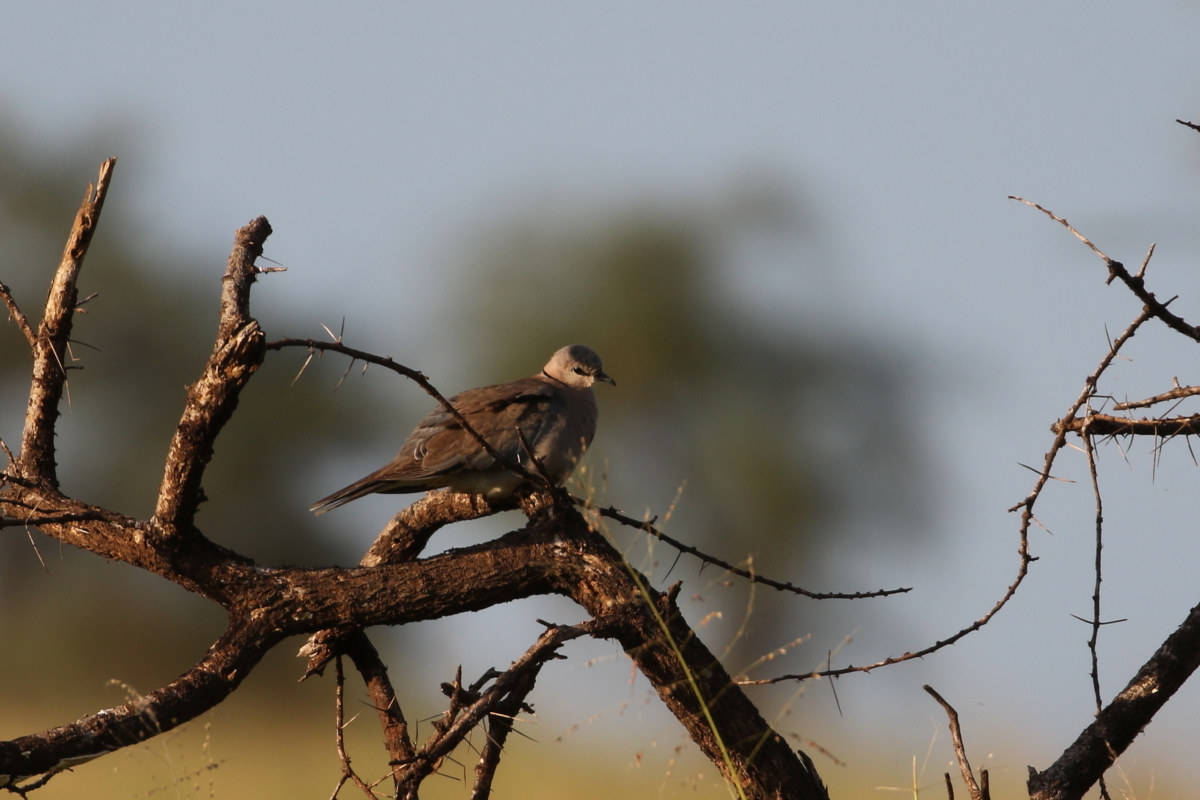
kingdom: Animalia
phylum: Chordata
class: Aves
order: Columbiformes
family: Columbidae
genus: Streptopelia
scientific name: Streptopelia capicola
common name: Ring-necked dove
